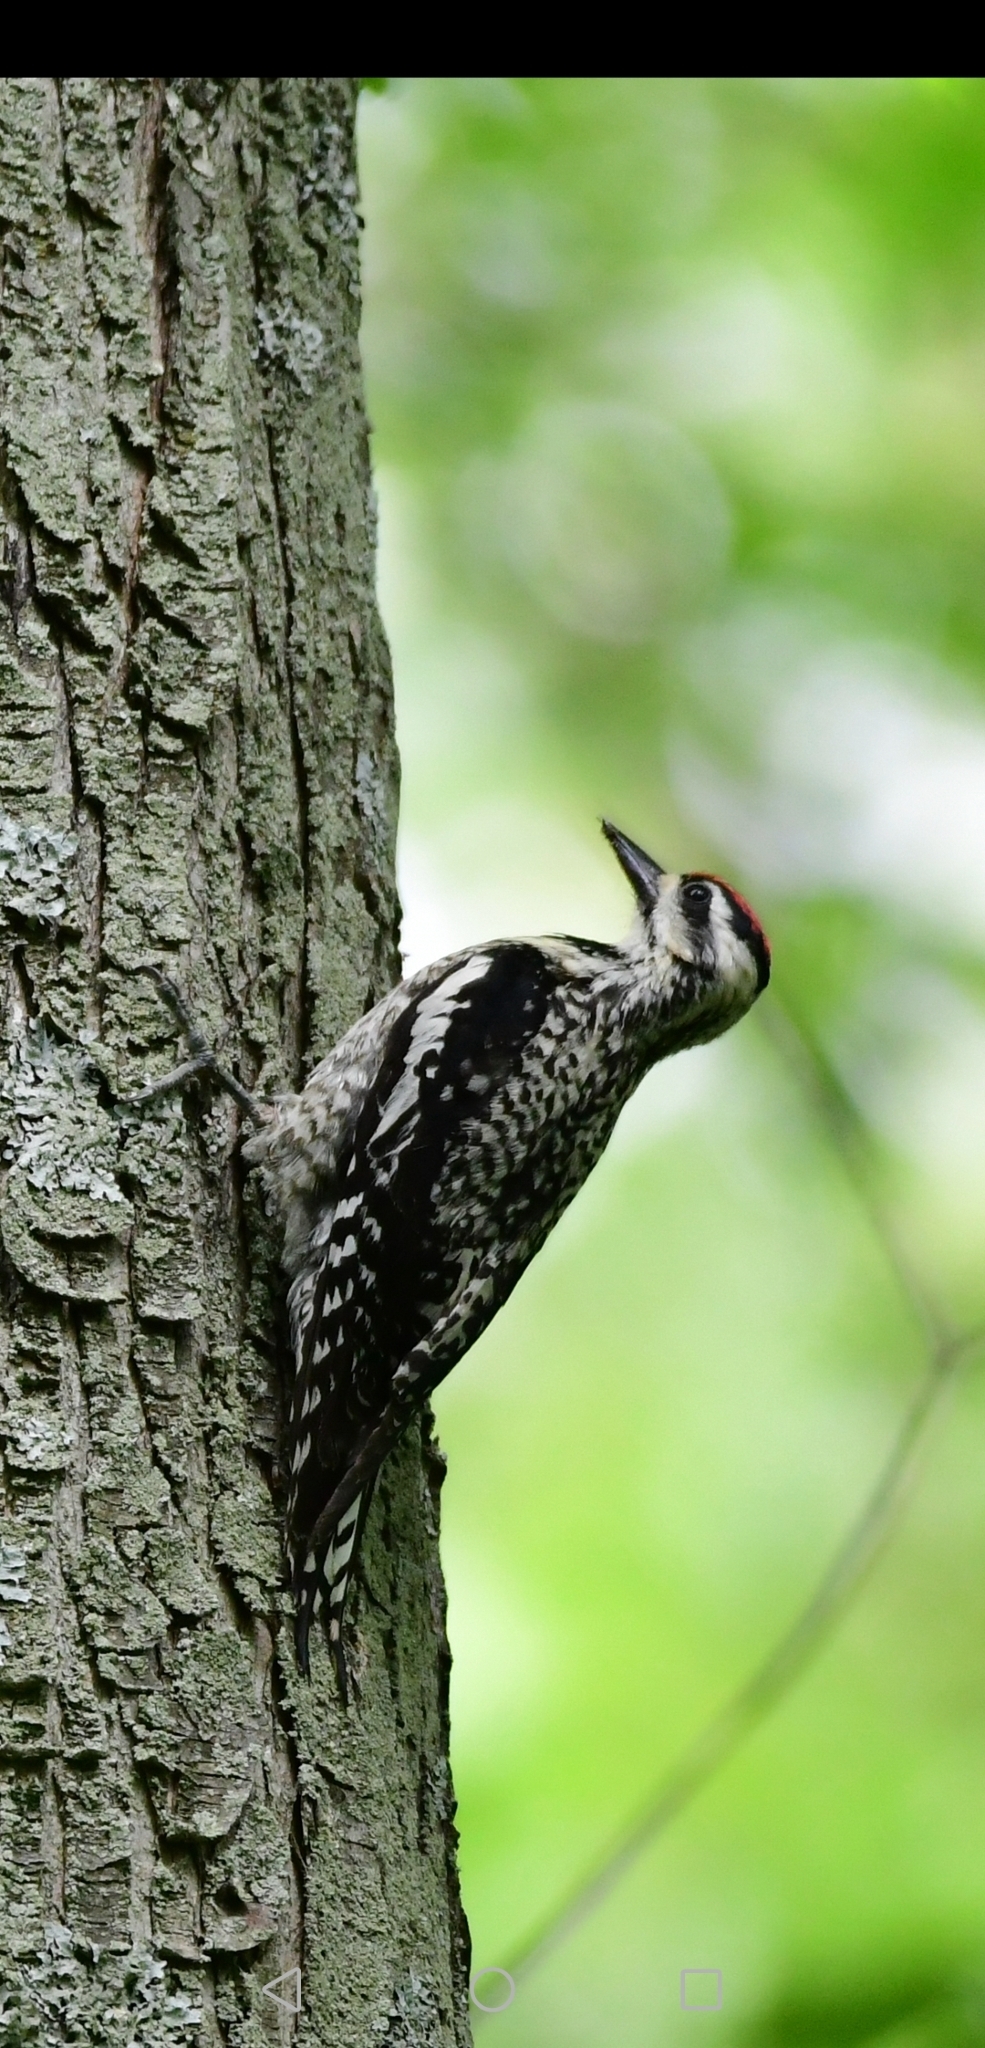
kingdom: Animalia
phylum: Chordata
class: Aves
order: Piciformes
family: Picidae
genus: Sphyrapicus
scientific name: Sphyrapicus varius
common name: Yellow-bellied sapsucker
